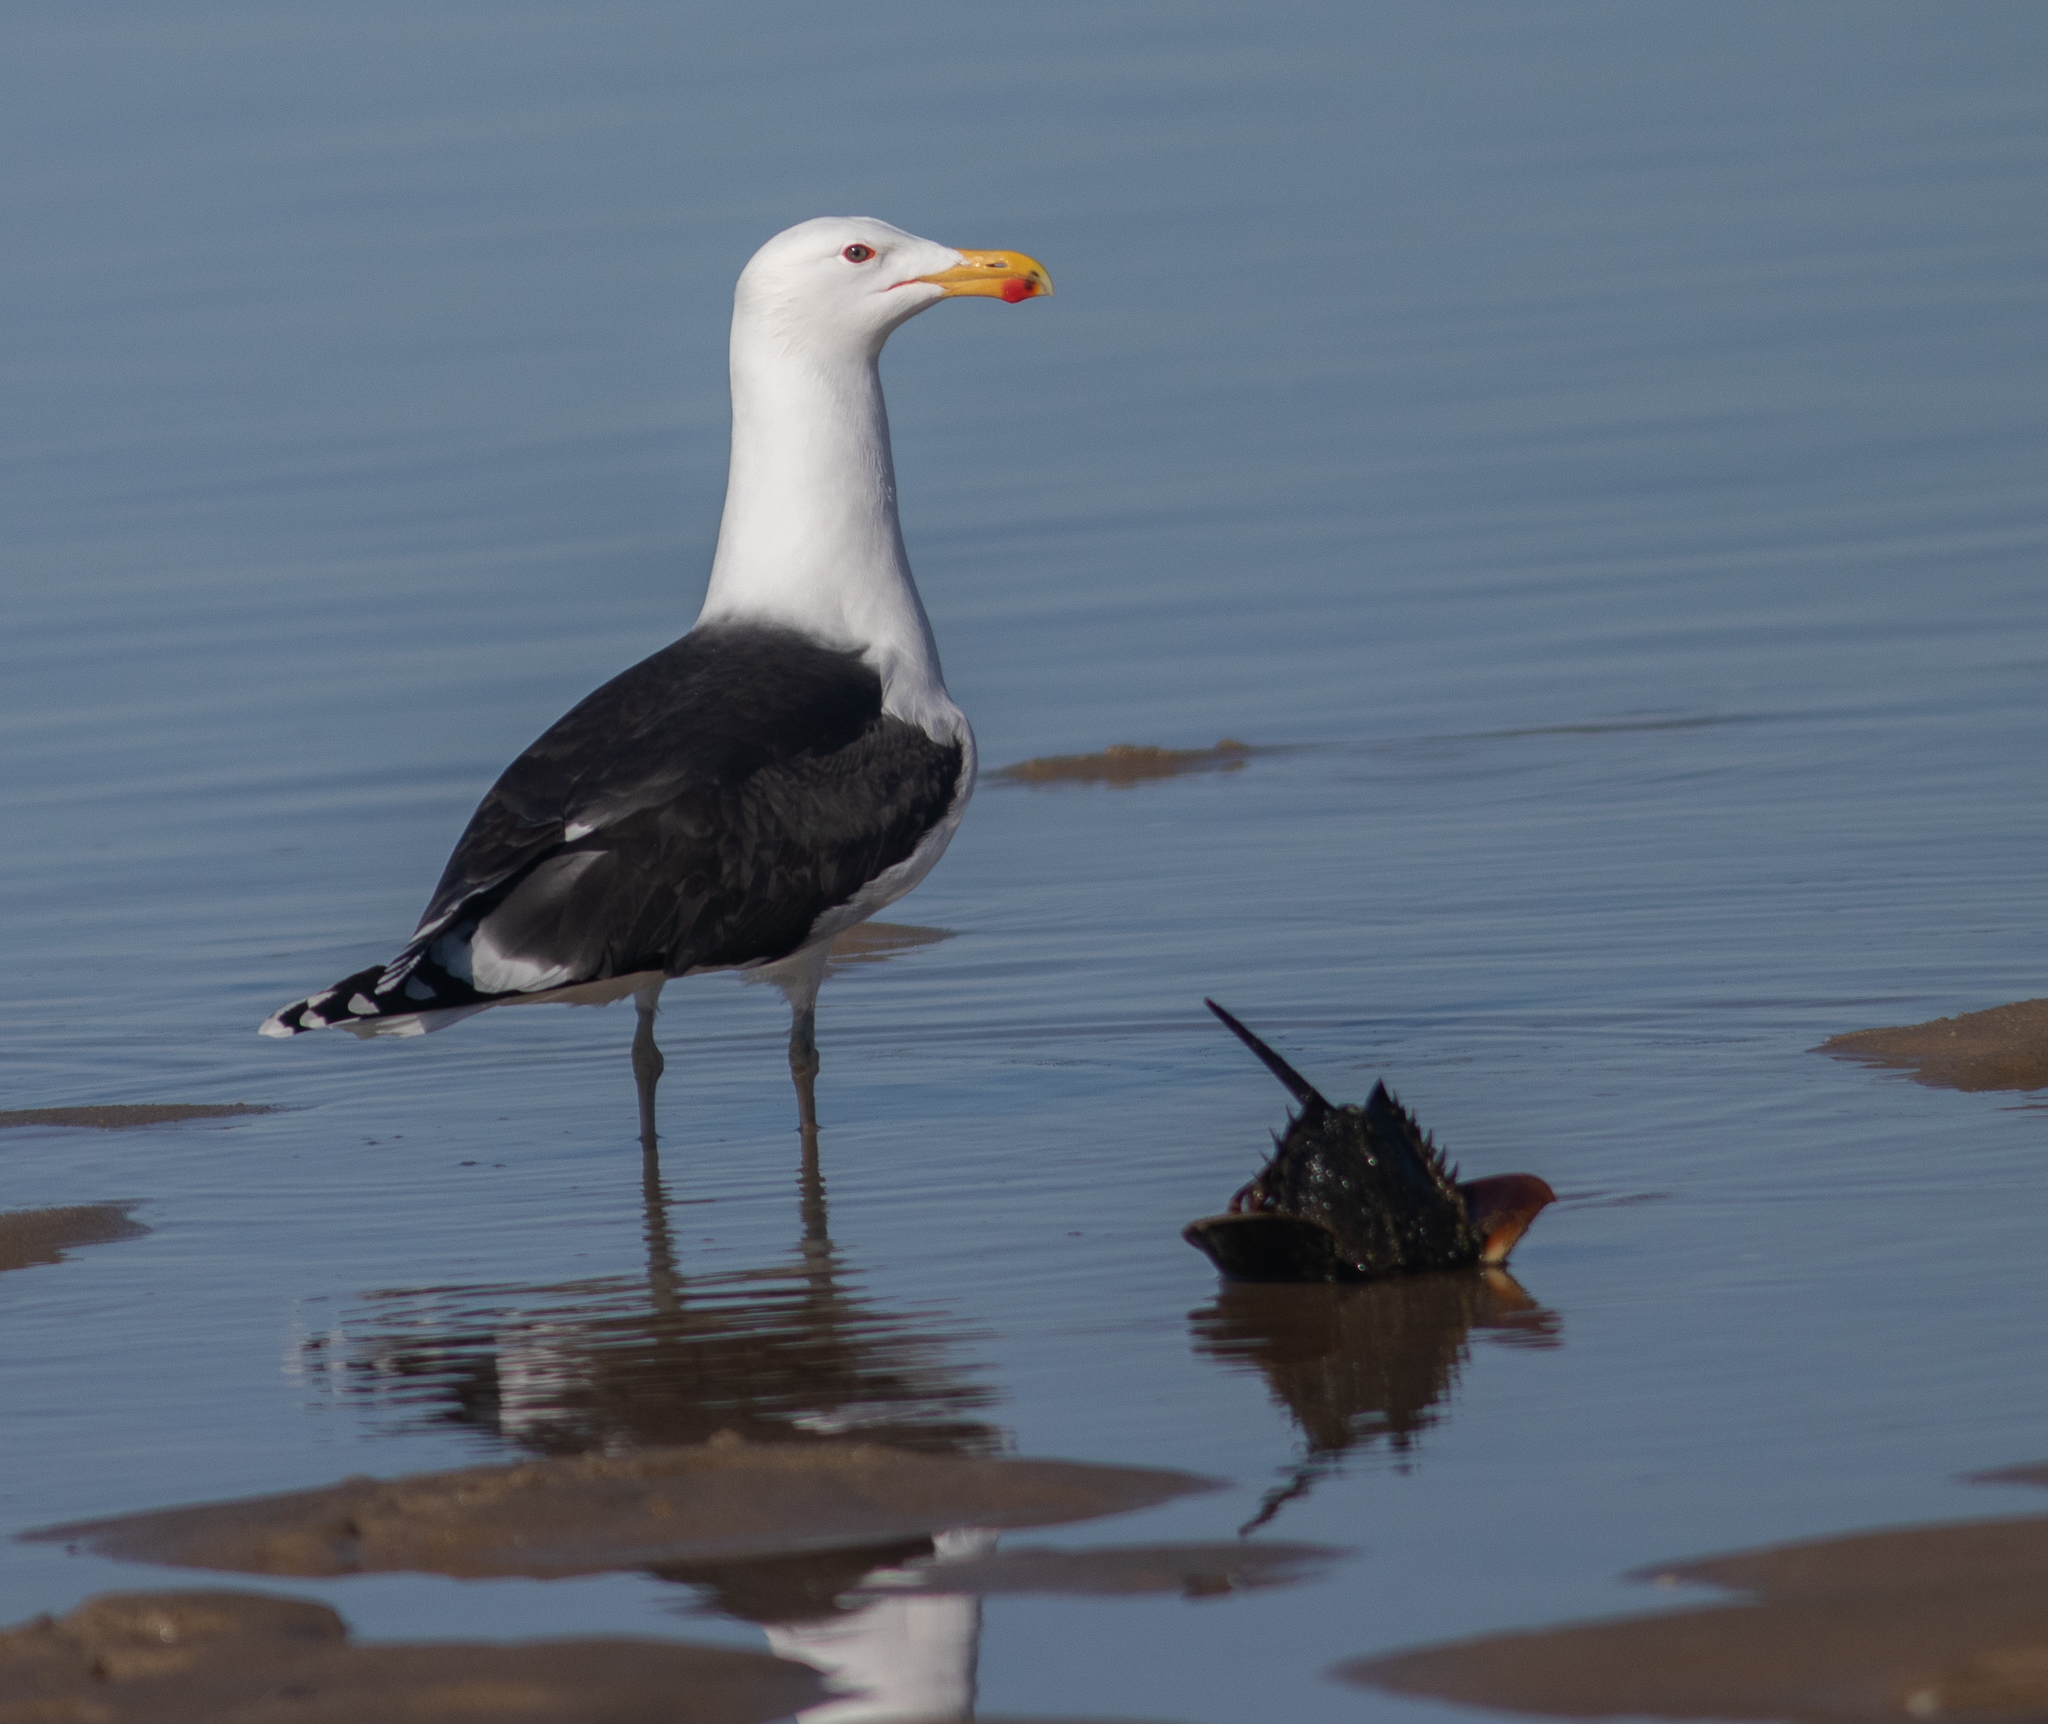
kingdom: Animalia
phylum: Chordata
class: Aves
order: Charadriiformes
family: Laridae
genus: Larus
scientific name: Larus marinus
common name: Great black-backed gull
